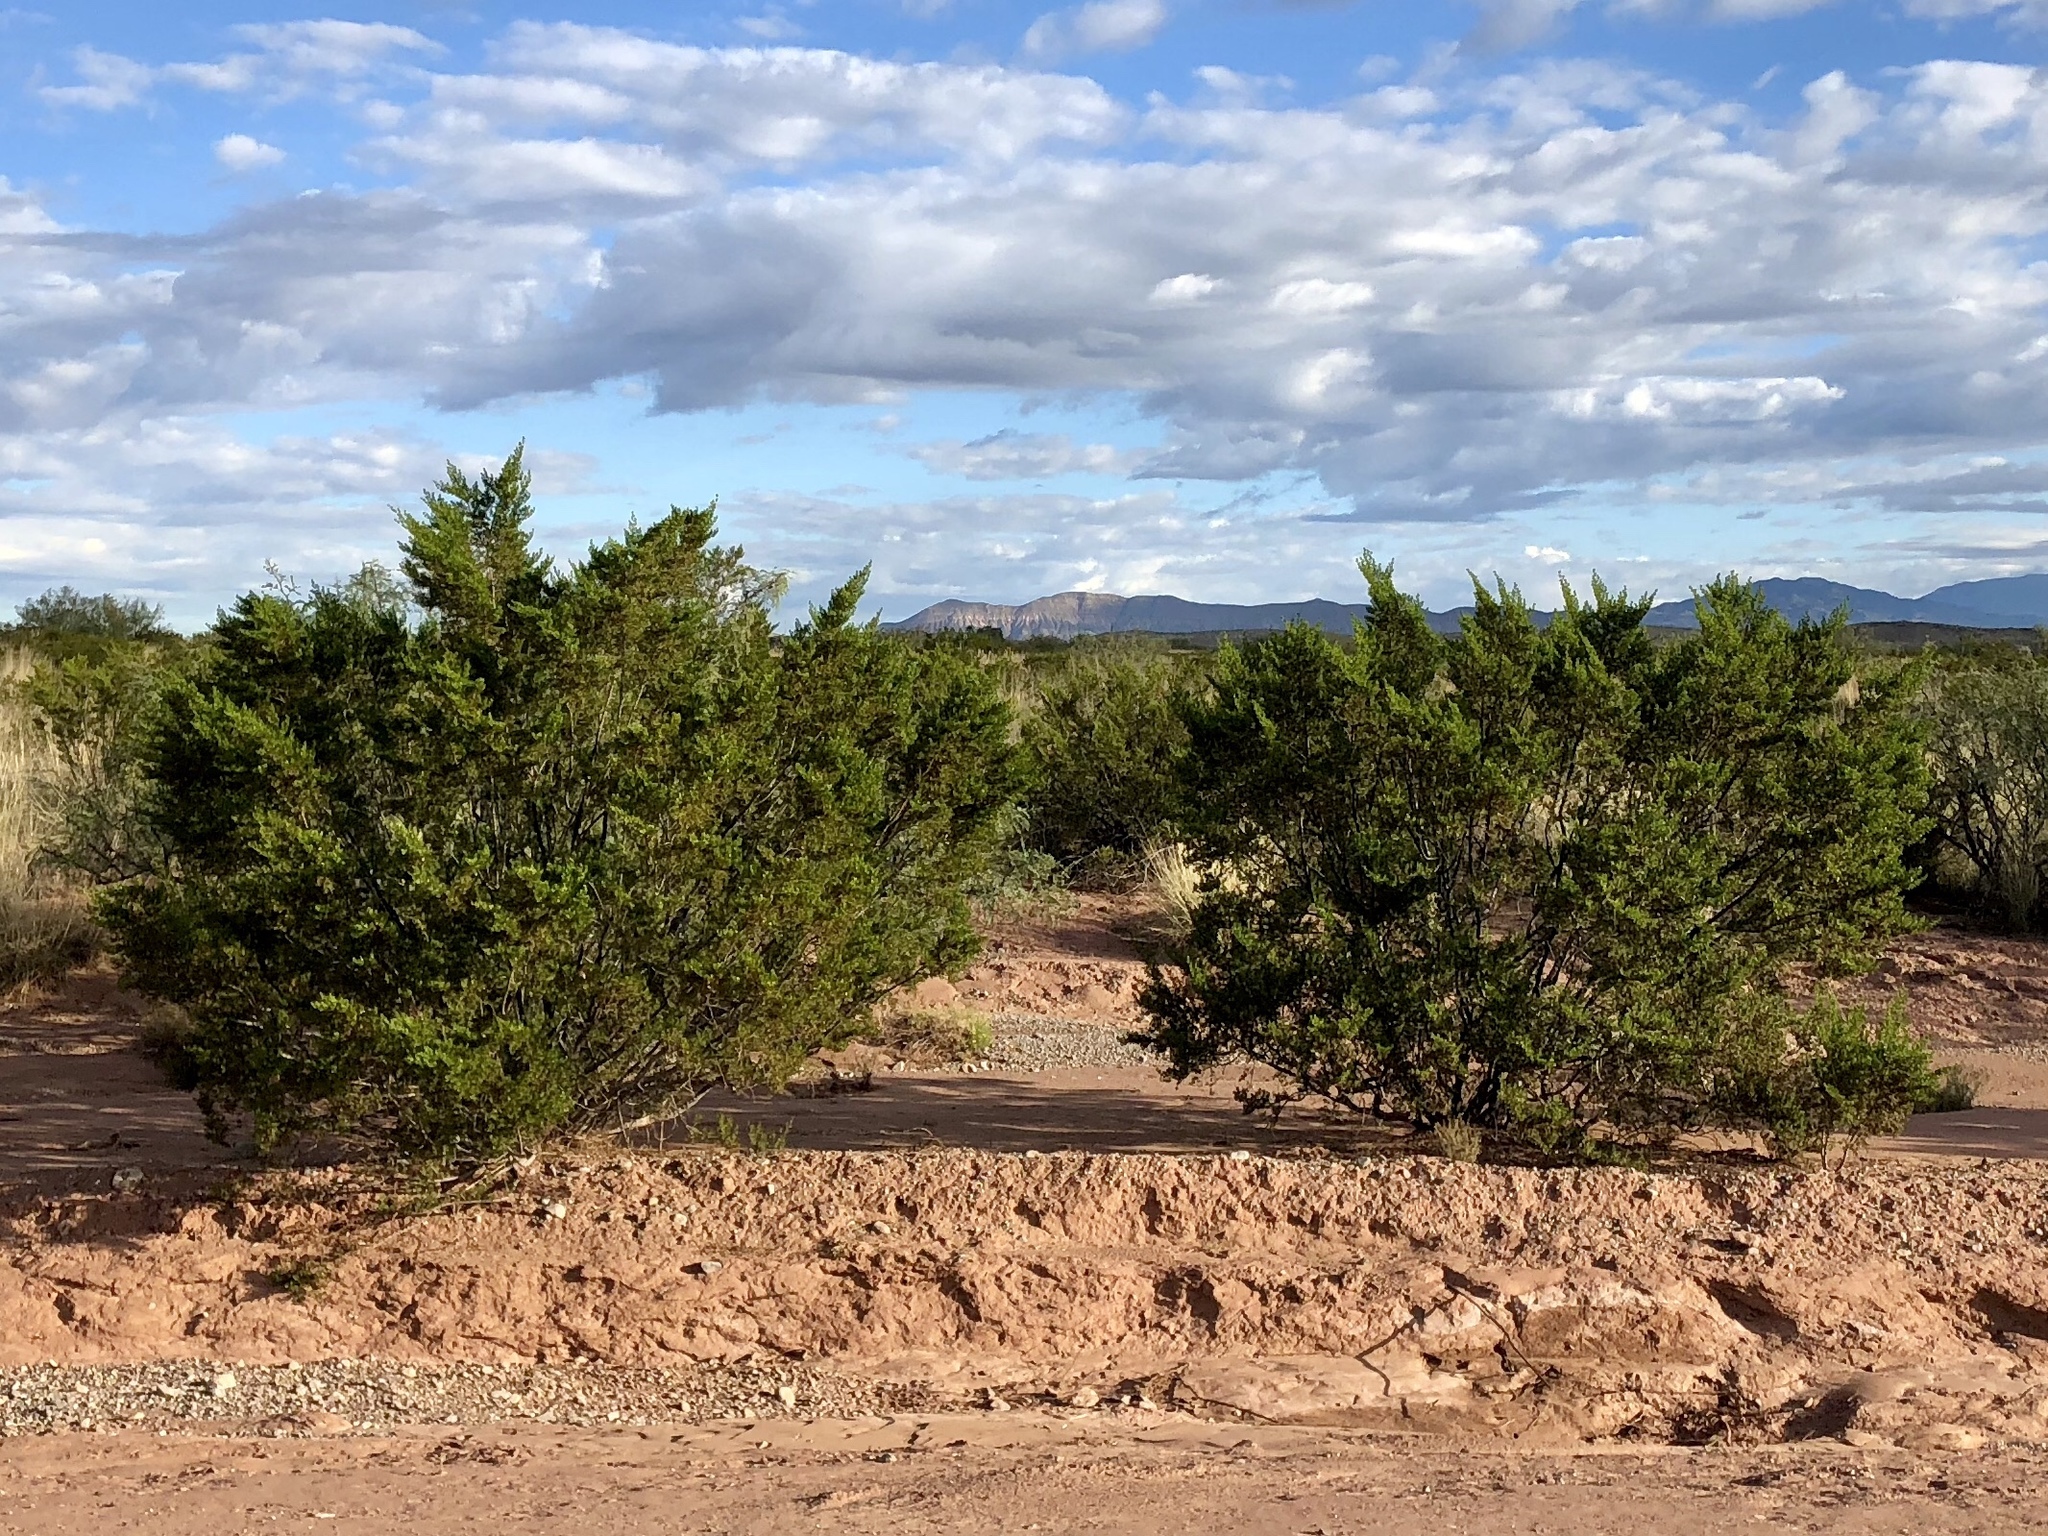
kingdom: Plantae
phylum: Tracheophyta
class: Magnoliopsida
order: Zygophyllales
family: Zygophyllaceae
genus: Larrea
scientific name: Larrea tridentata
